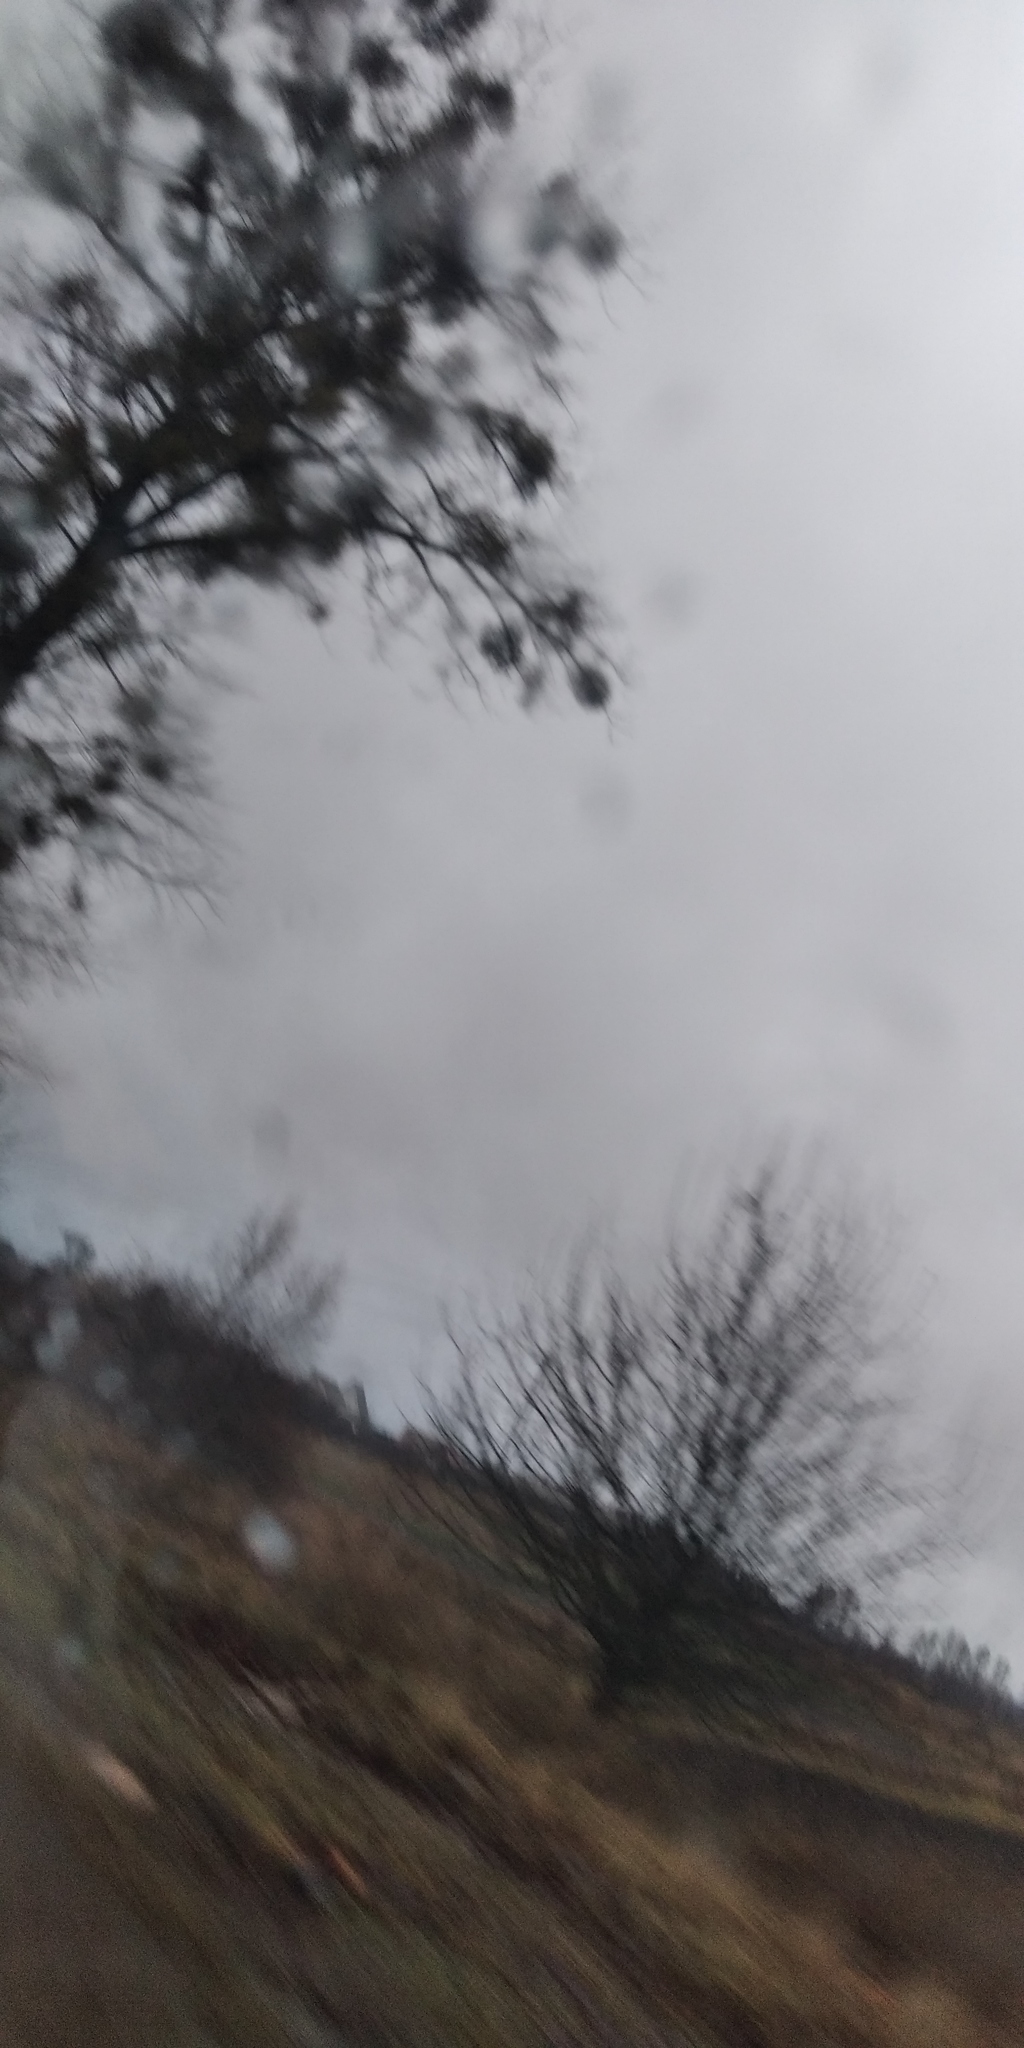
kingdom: Plantae
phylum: Tracheophyta
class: Magnoliopsida
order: Santalales
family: Viscaceae
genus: Viscum
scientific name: Viscum album
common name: Mistletoe
